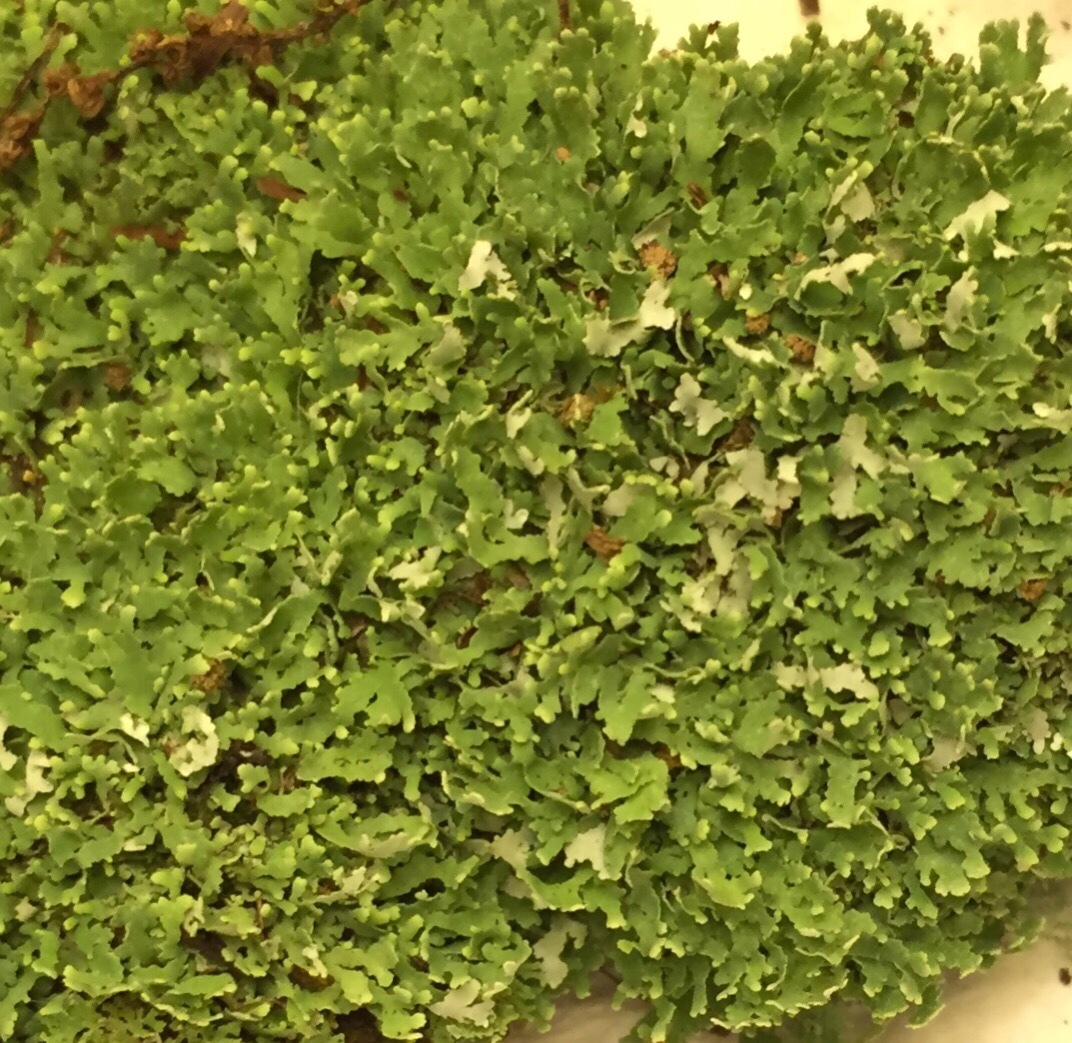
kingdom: Fungi
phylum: Ascomycota
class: Lecanoromycetes
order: Lecanorales
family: Cladoniaceae
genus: Cladonia
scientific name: Cladonia apodocarpa
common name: Stalkless cladonia
